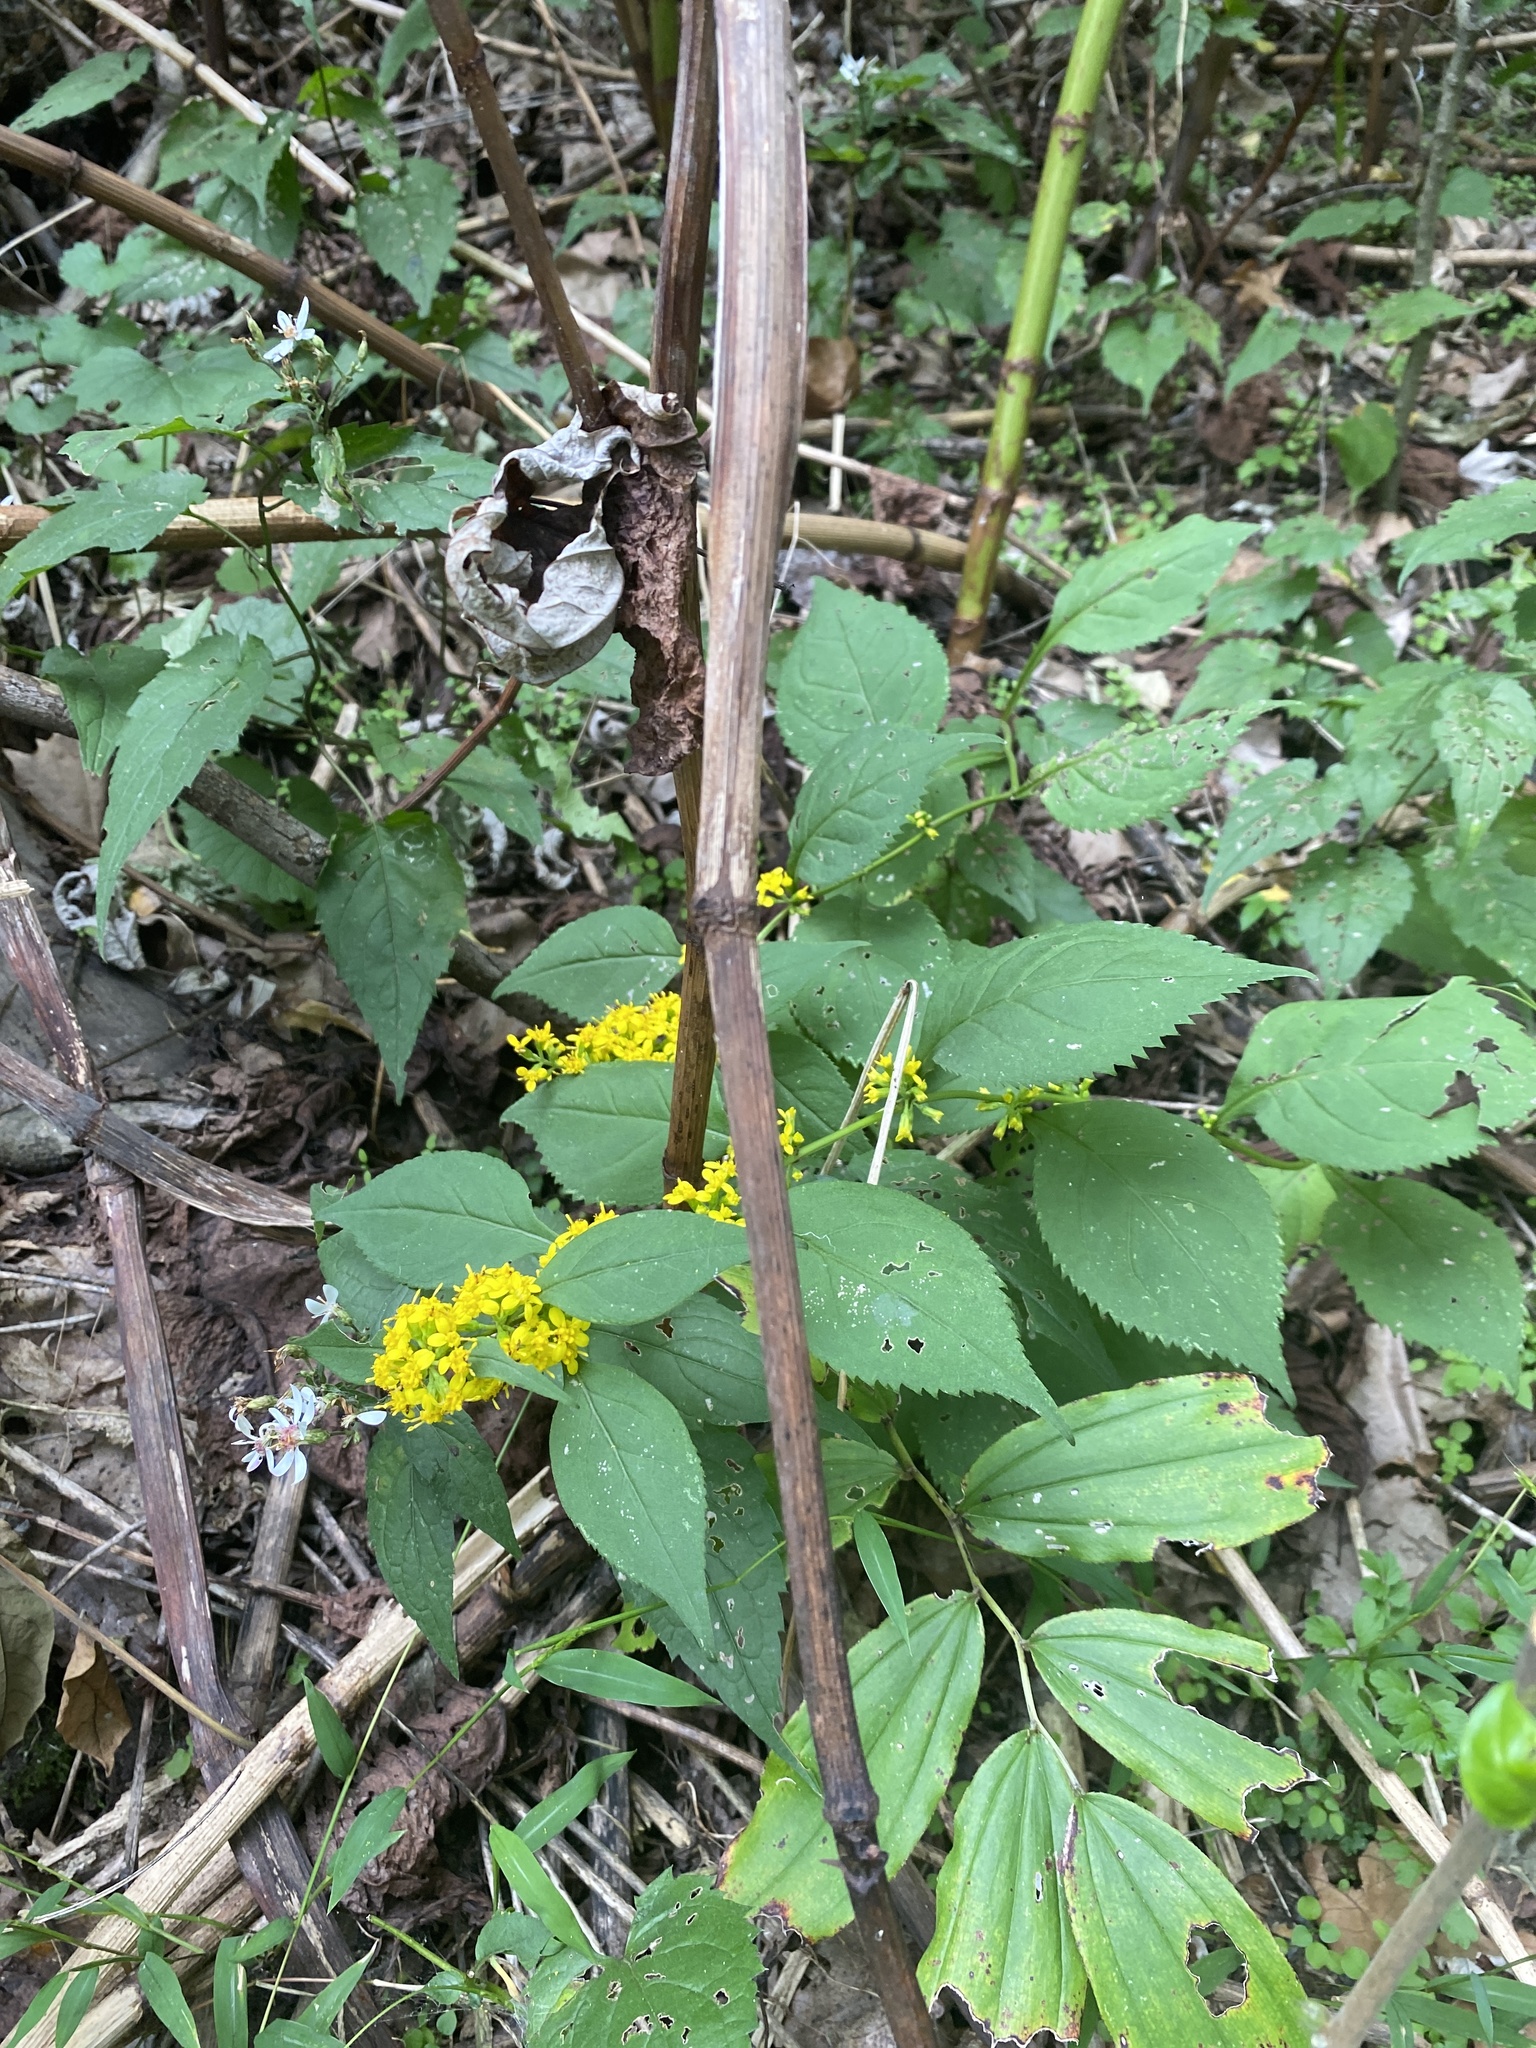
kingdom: Plantae
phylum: Tracheophyta
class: Magnoliopsida
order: Asterales
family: Asteraceae
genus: Solidago
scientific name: Solidago flexicaulis
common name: Zig-zag goldenrod
